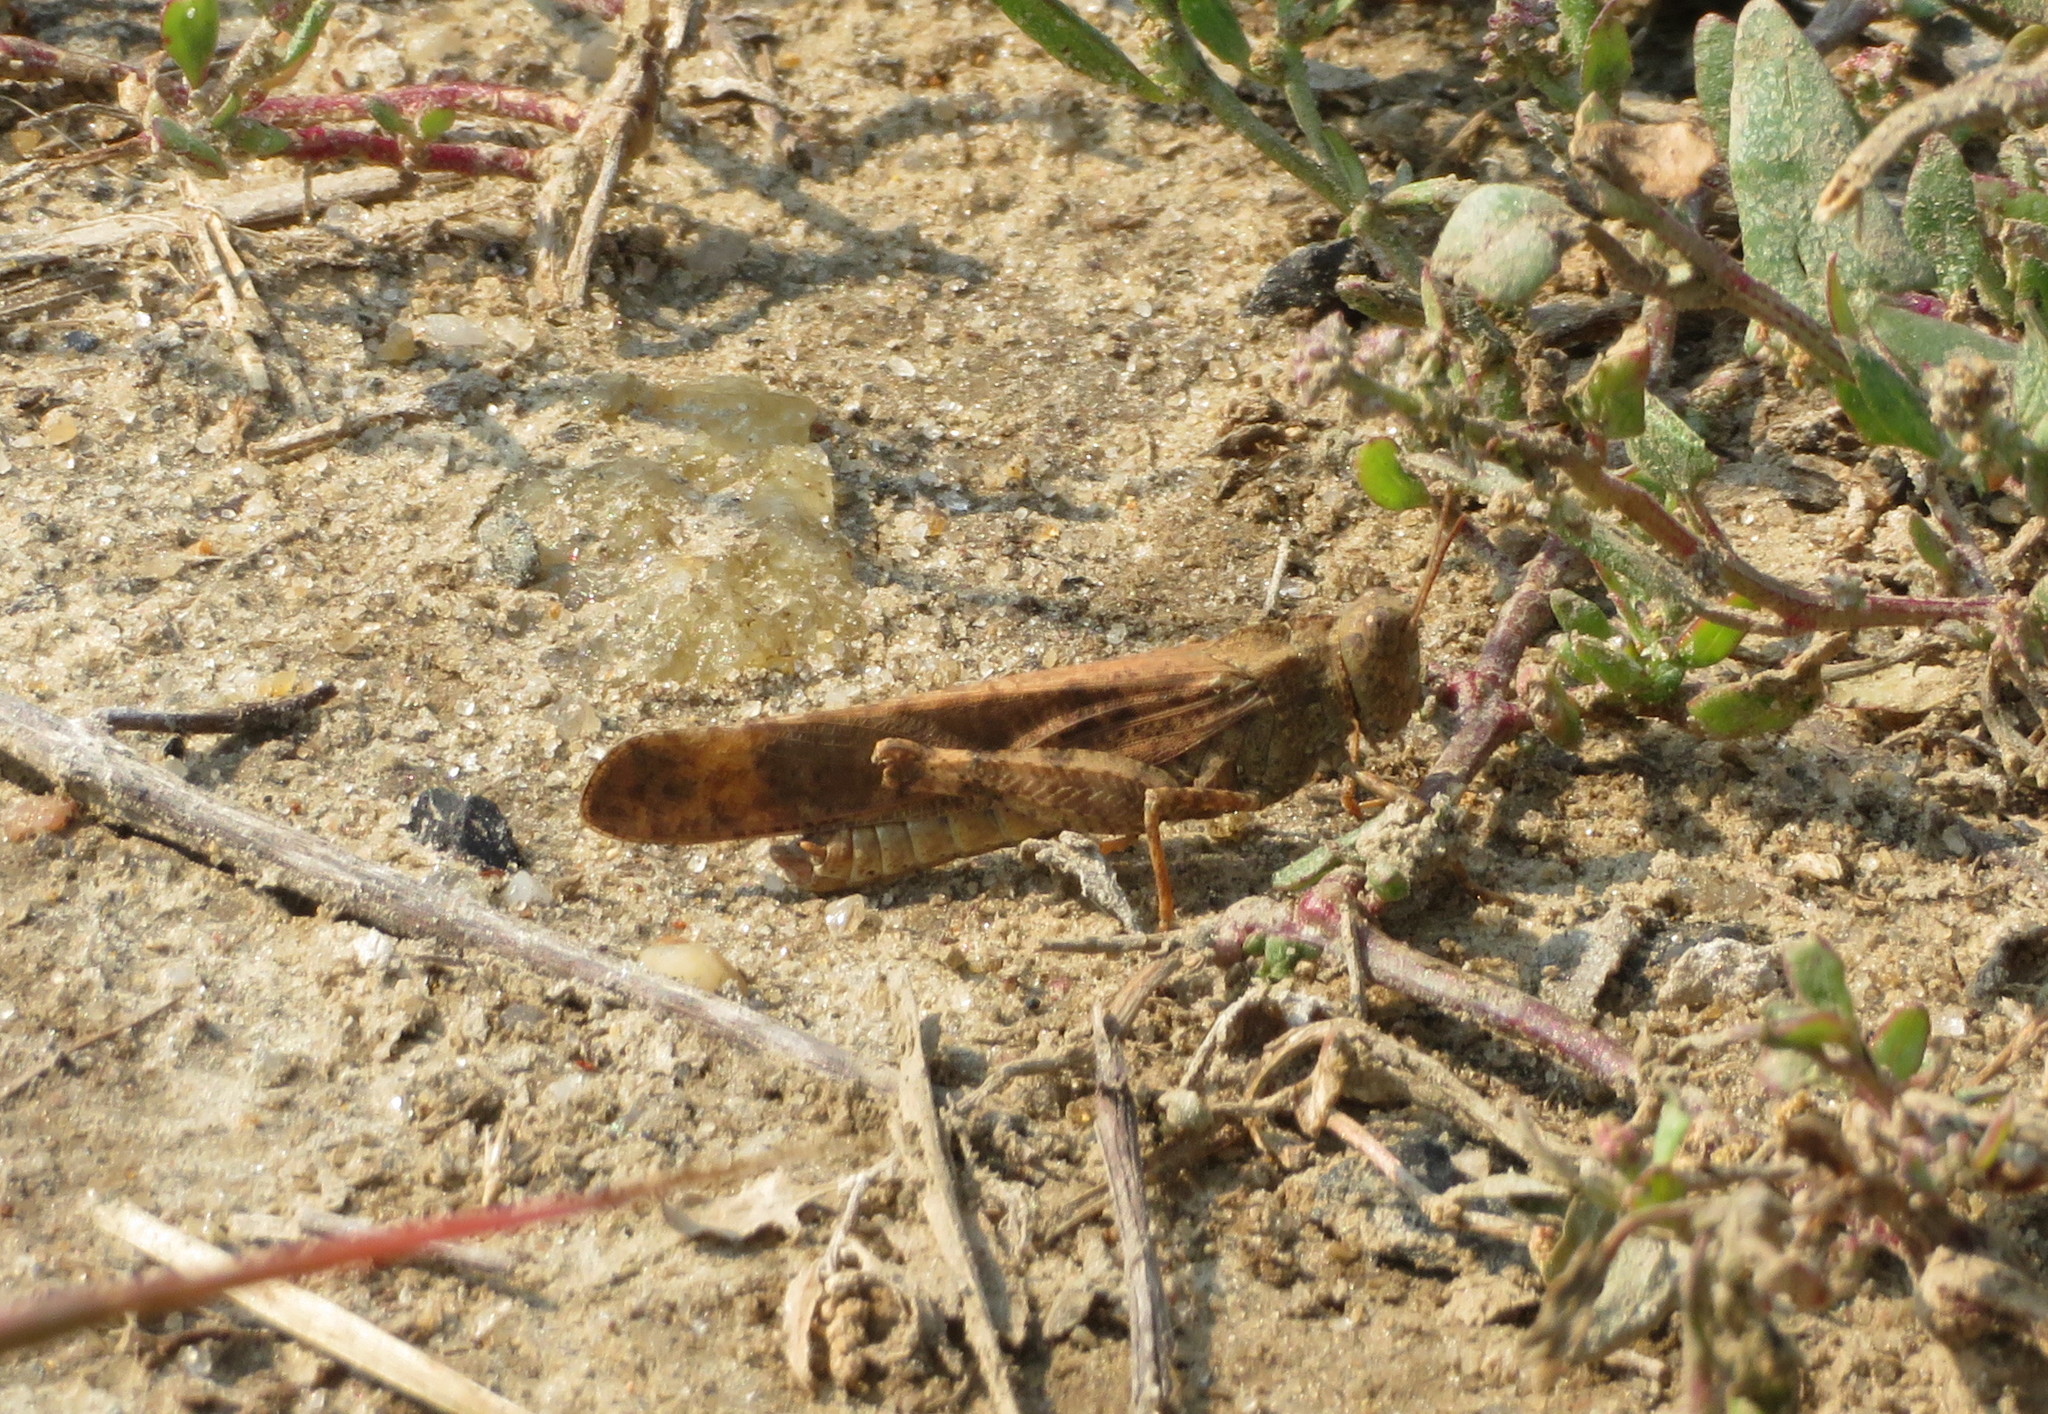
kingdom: Animalia
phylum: Arthropoda
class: Insecta
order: Orthoptera
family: Acrididae
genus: Dissosteira
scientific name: Dissosteira carolina
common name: Carolina grasshopper
